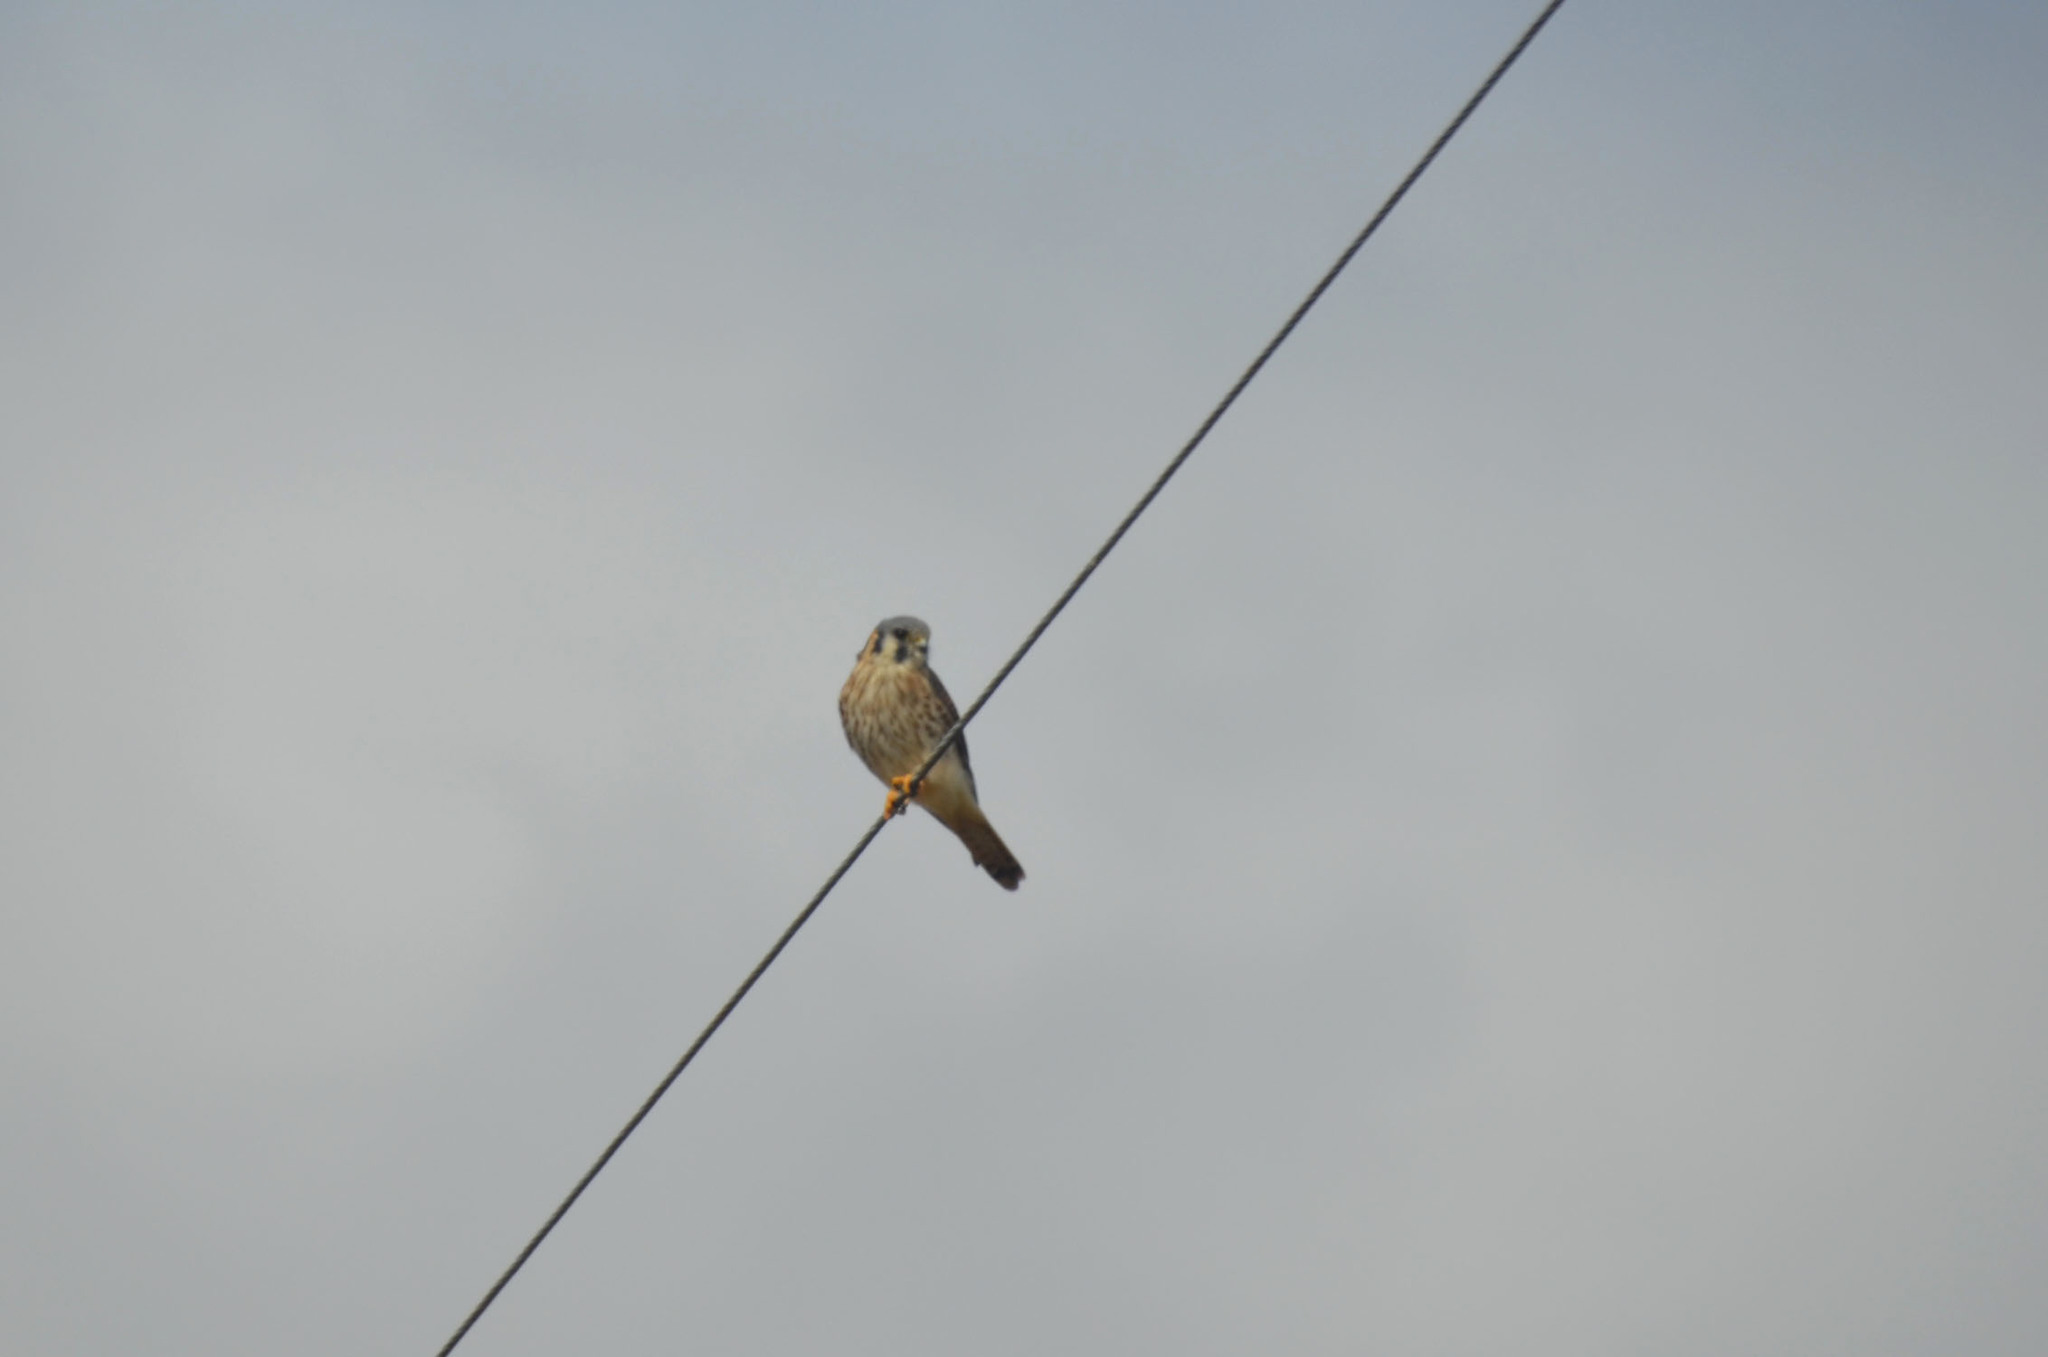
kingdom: Animalia
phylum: Chordata
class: Aves
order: Falconiformes
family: Falconidae
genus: Falco
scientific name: Falco sparverius
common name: American kestrel
